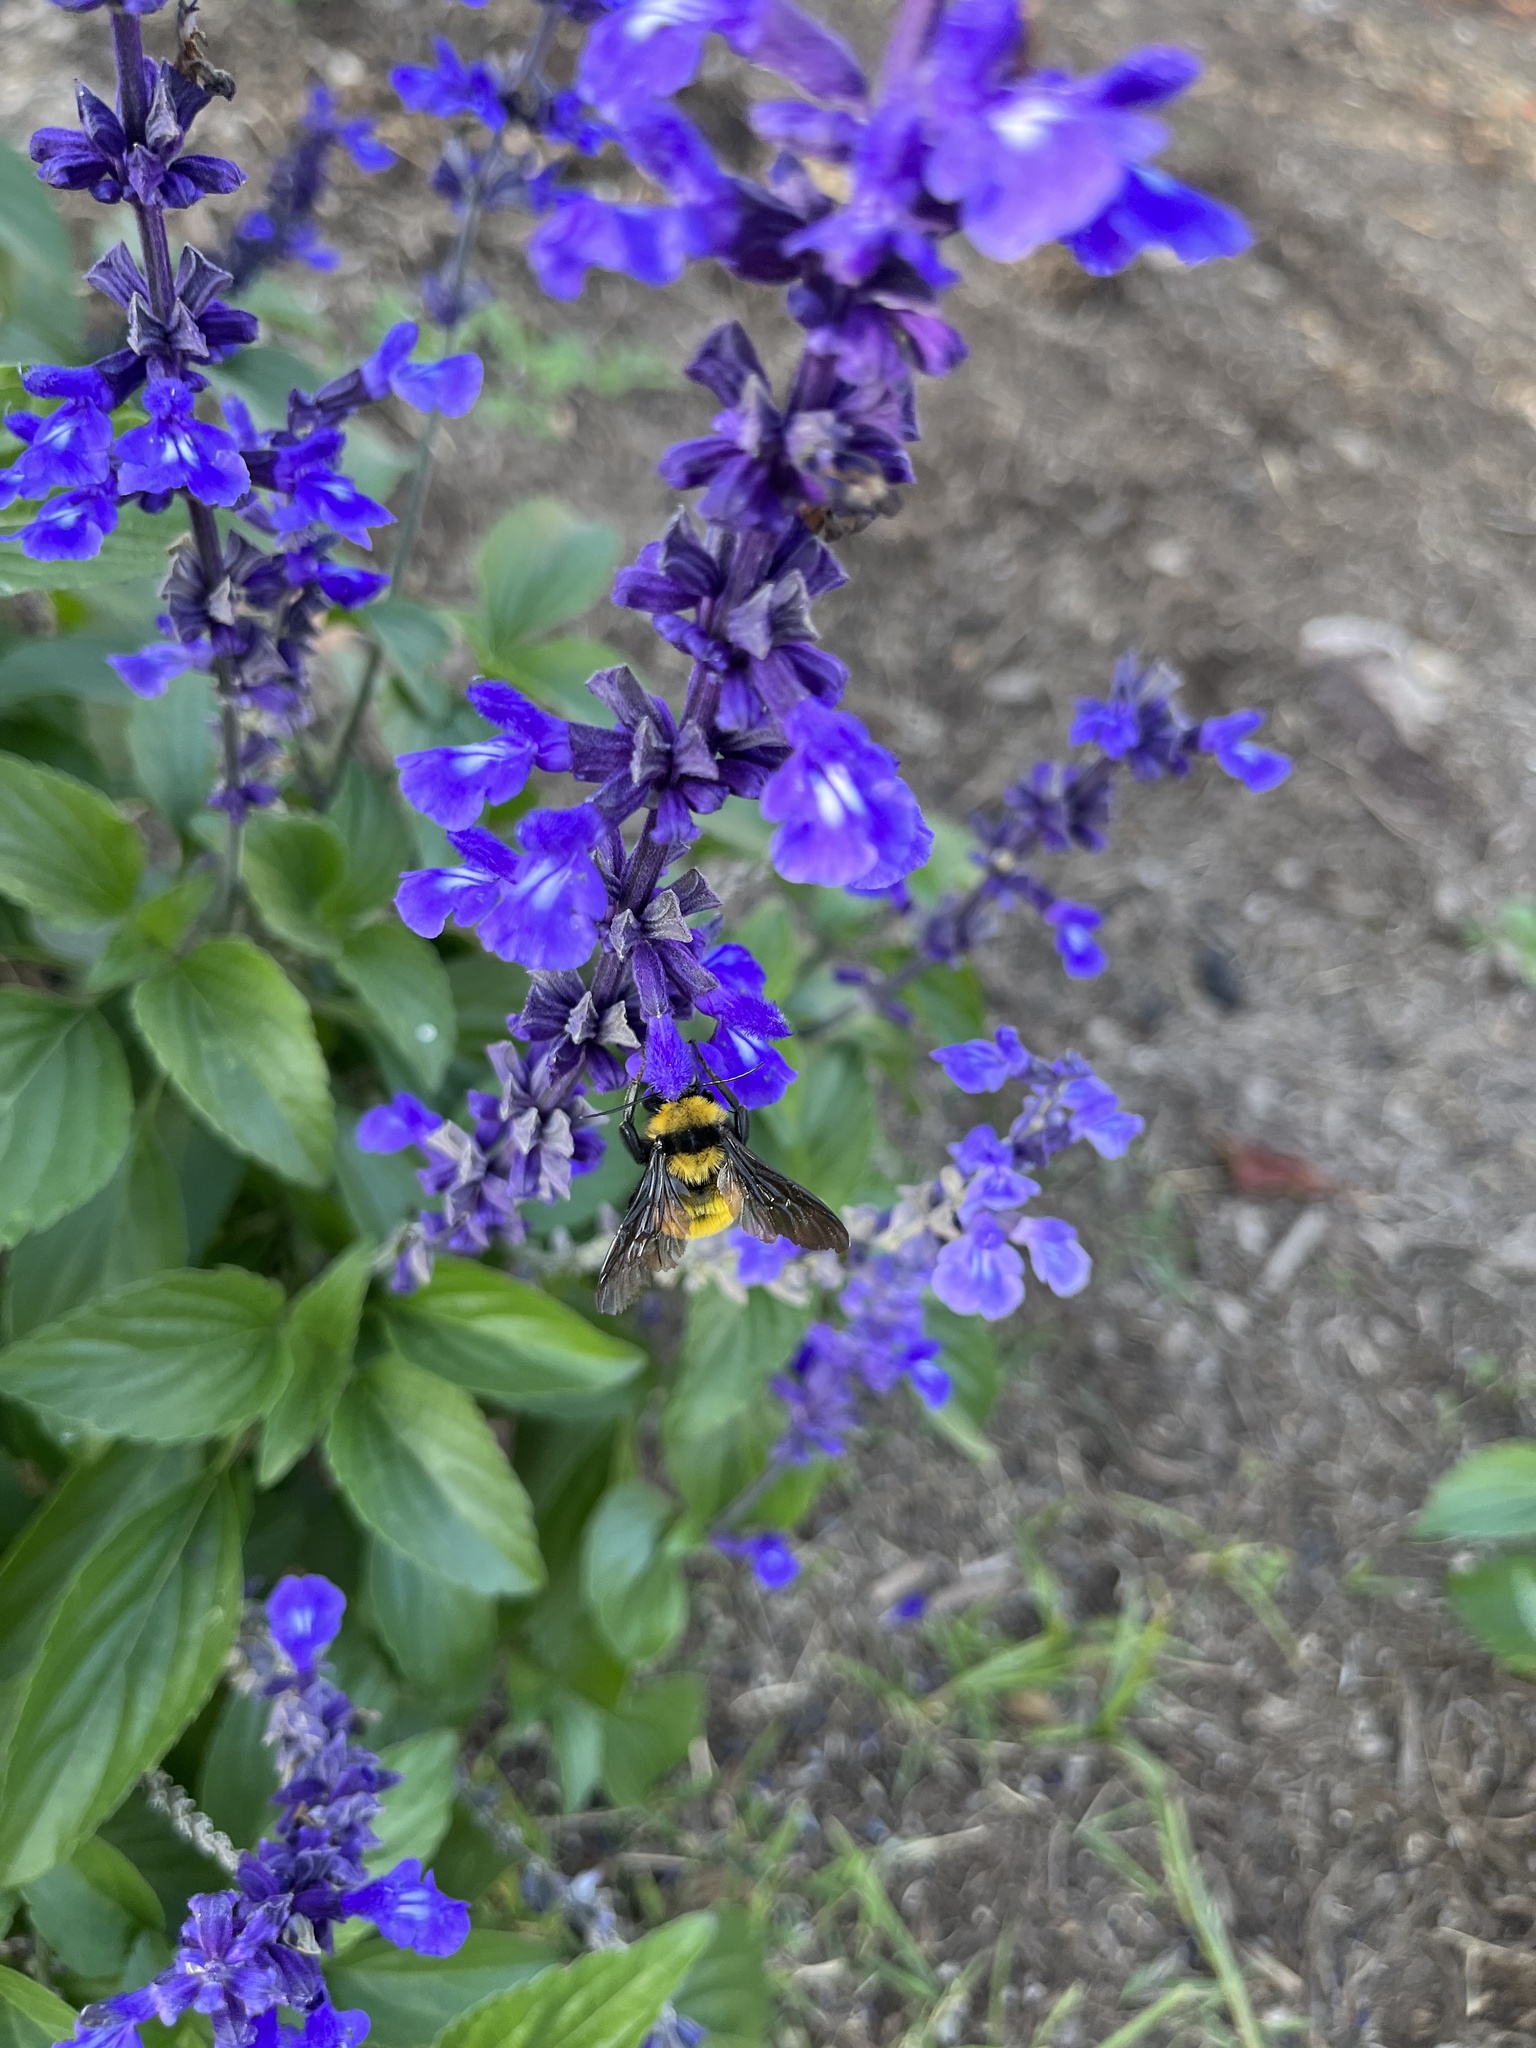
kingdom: Animalia
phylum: Arthropoda
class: Insecta
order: Hymenoptera
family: Apidae
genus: Bombus
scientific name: Bombus sonorus
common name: Sonoran bumble bee
